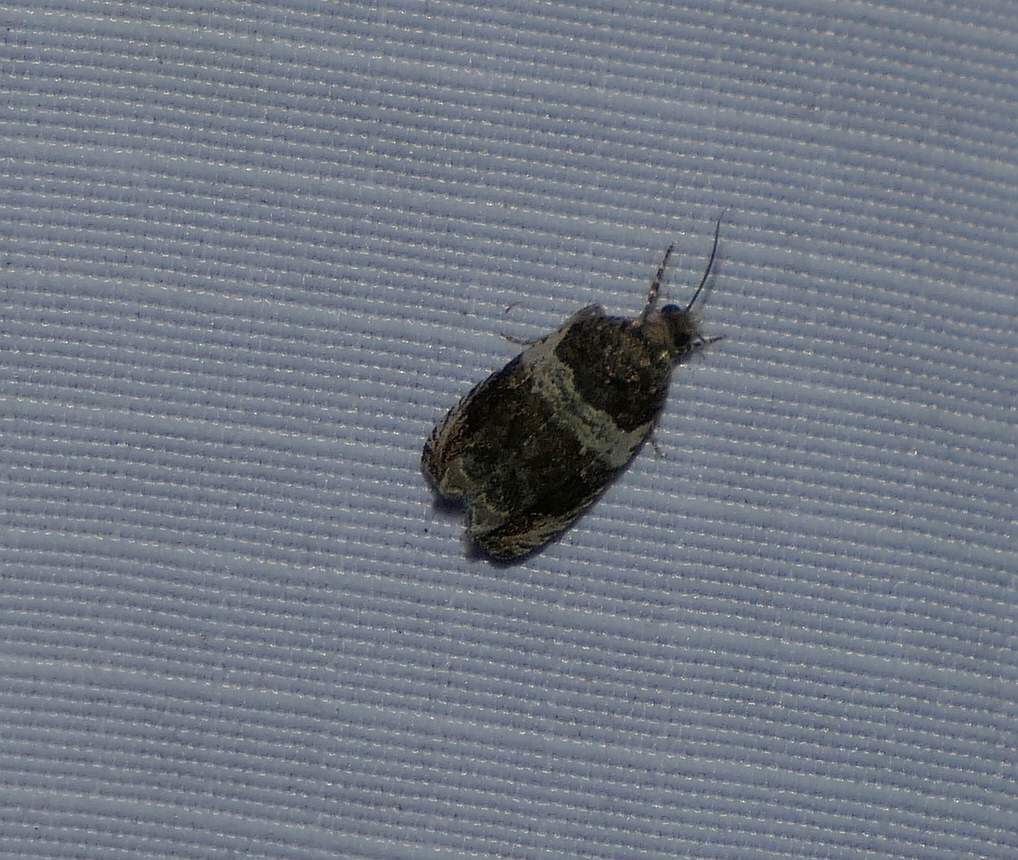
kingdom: Animalia
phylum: Arthropoda
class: Insecta
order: Lepidoptera
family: Tortricidae
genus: Olethreutes
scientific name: Olethreutes fasciatana
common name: Banded olethreutes moth
